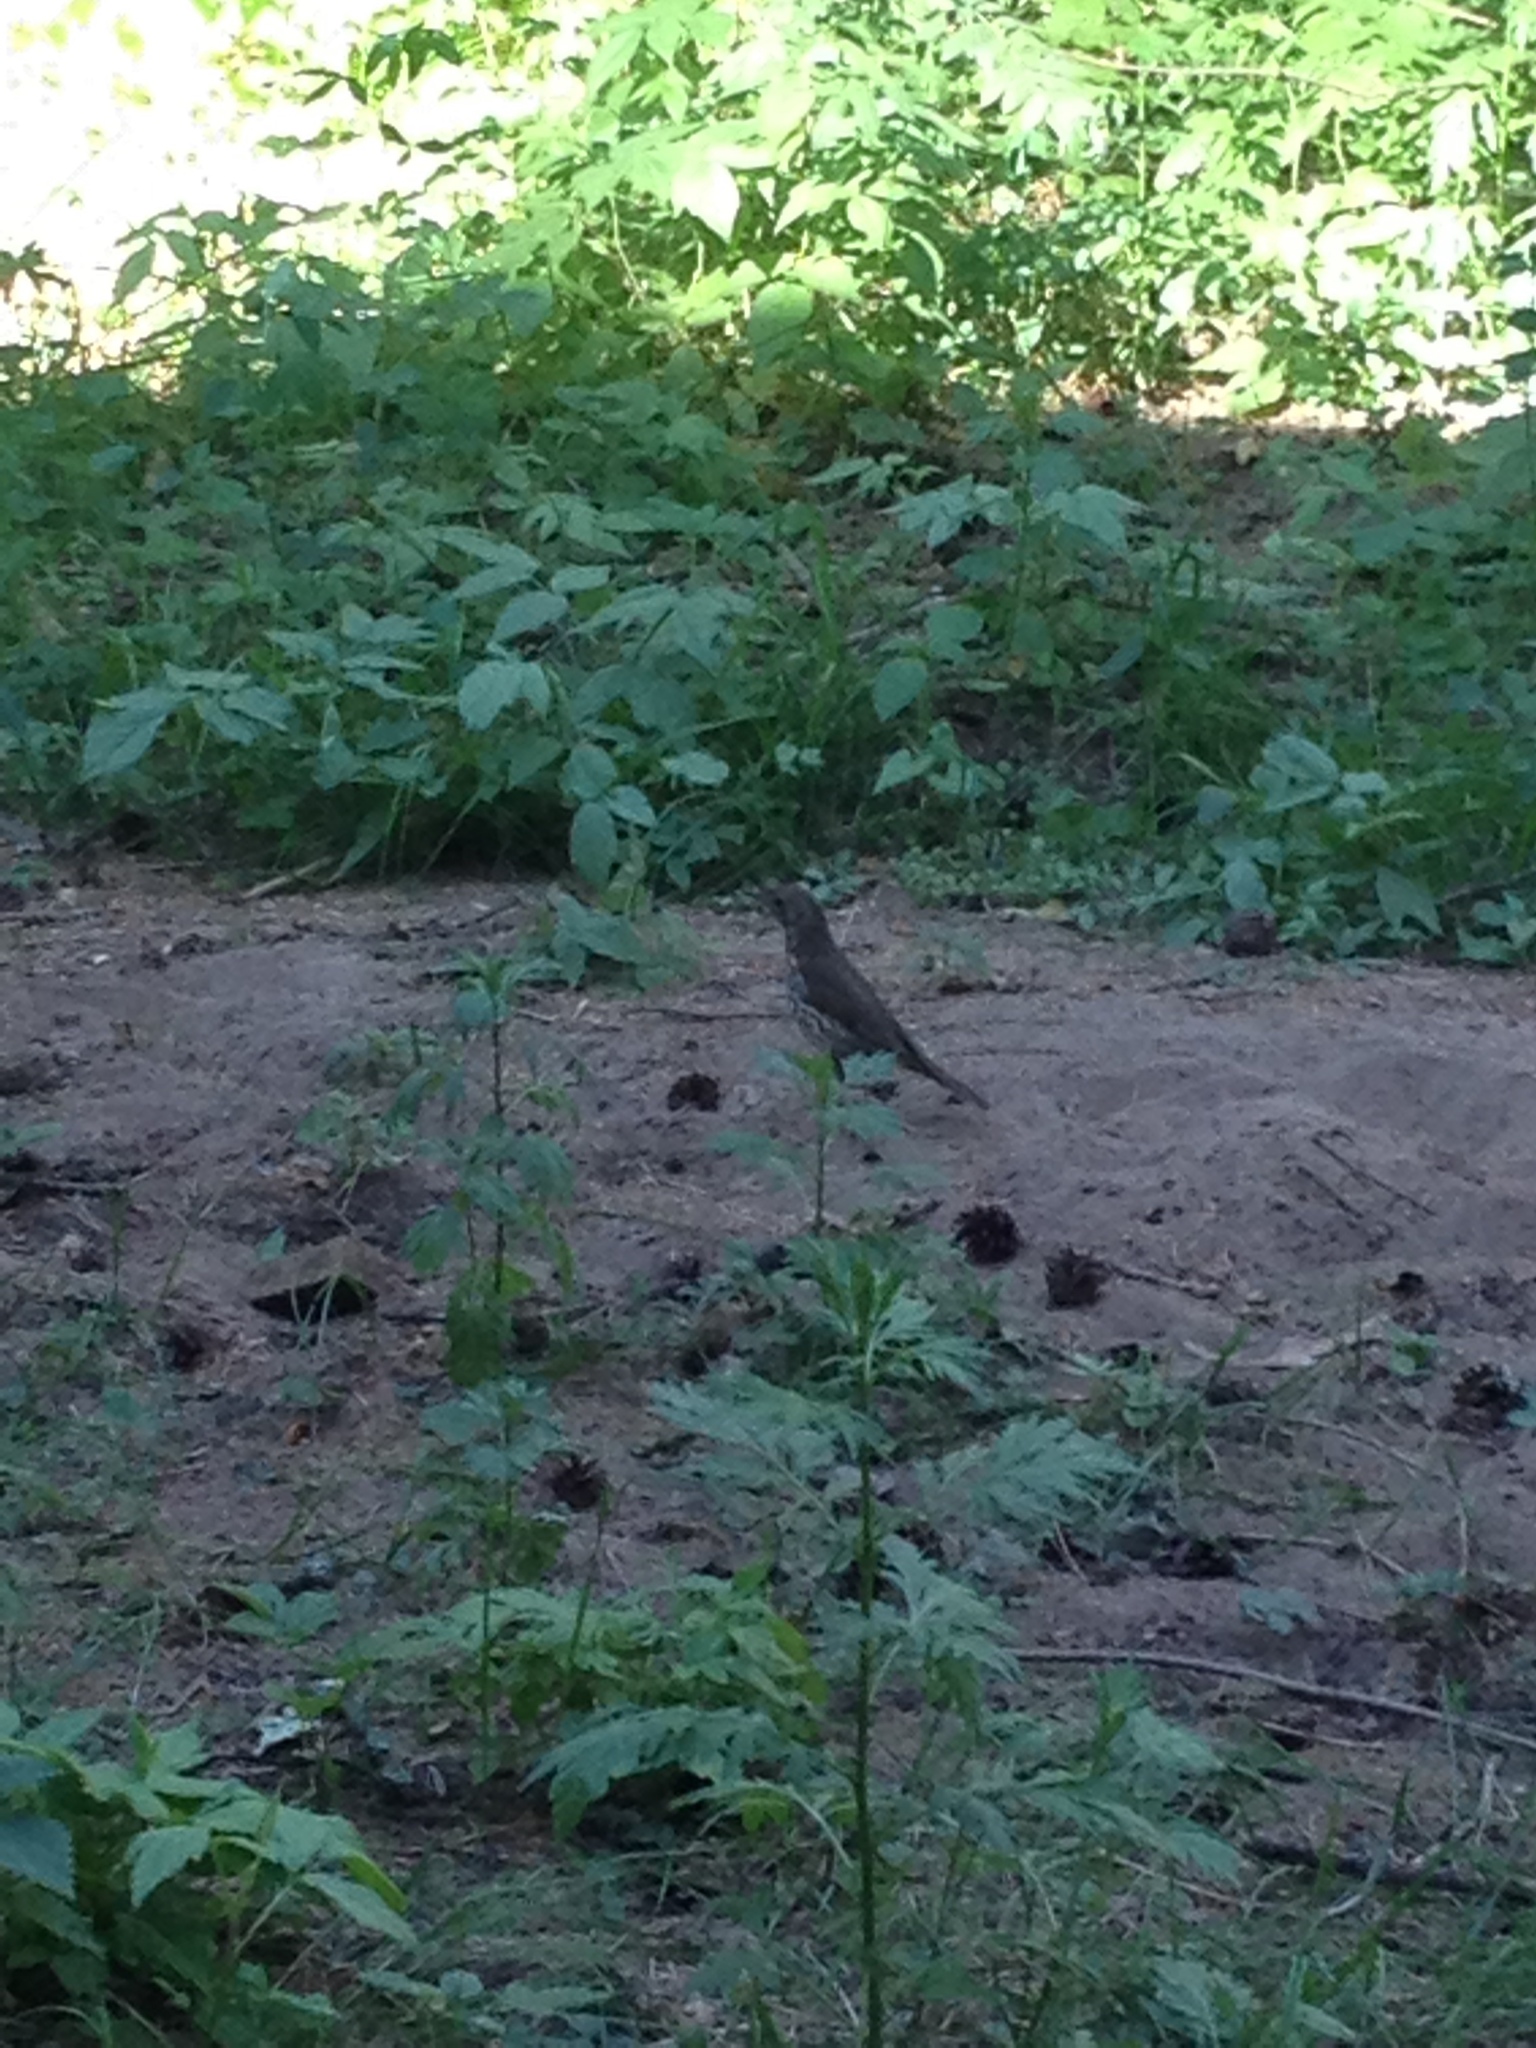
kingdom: Animalia
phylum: Chordata
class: Aves
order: Passeriformes
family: Turdidae
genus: Turdus
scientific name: Turdus philomelos
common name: Song thrush
